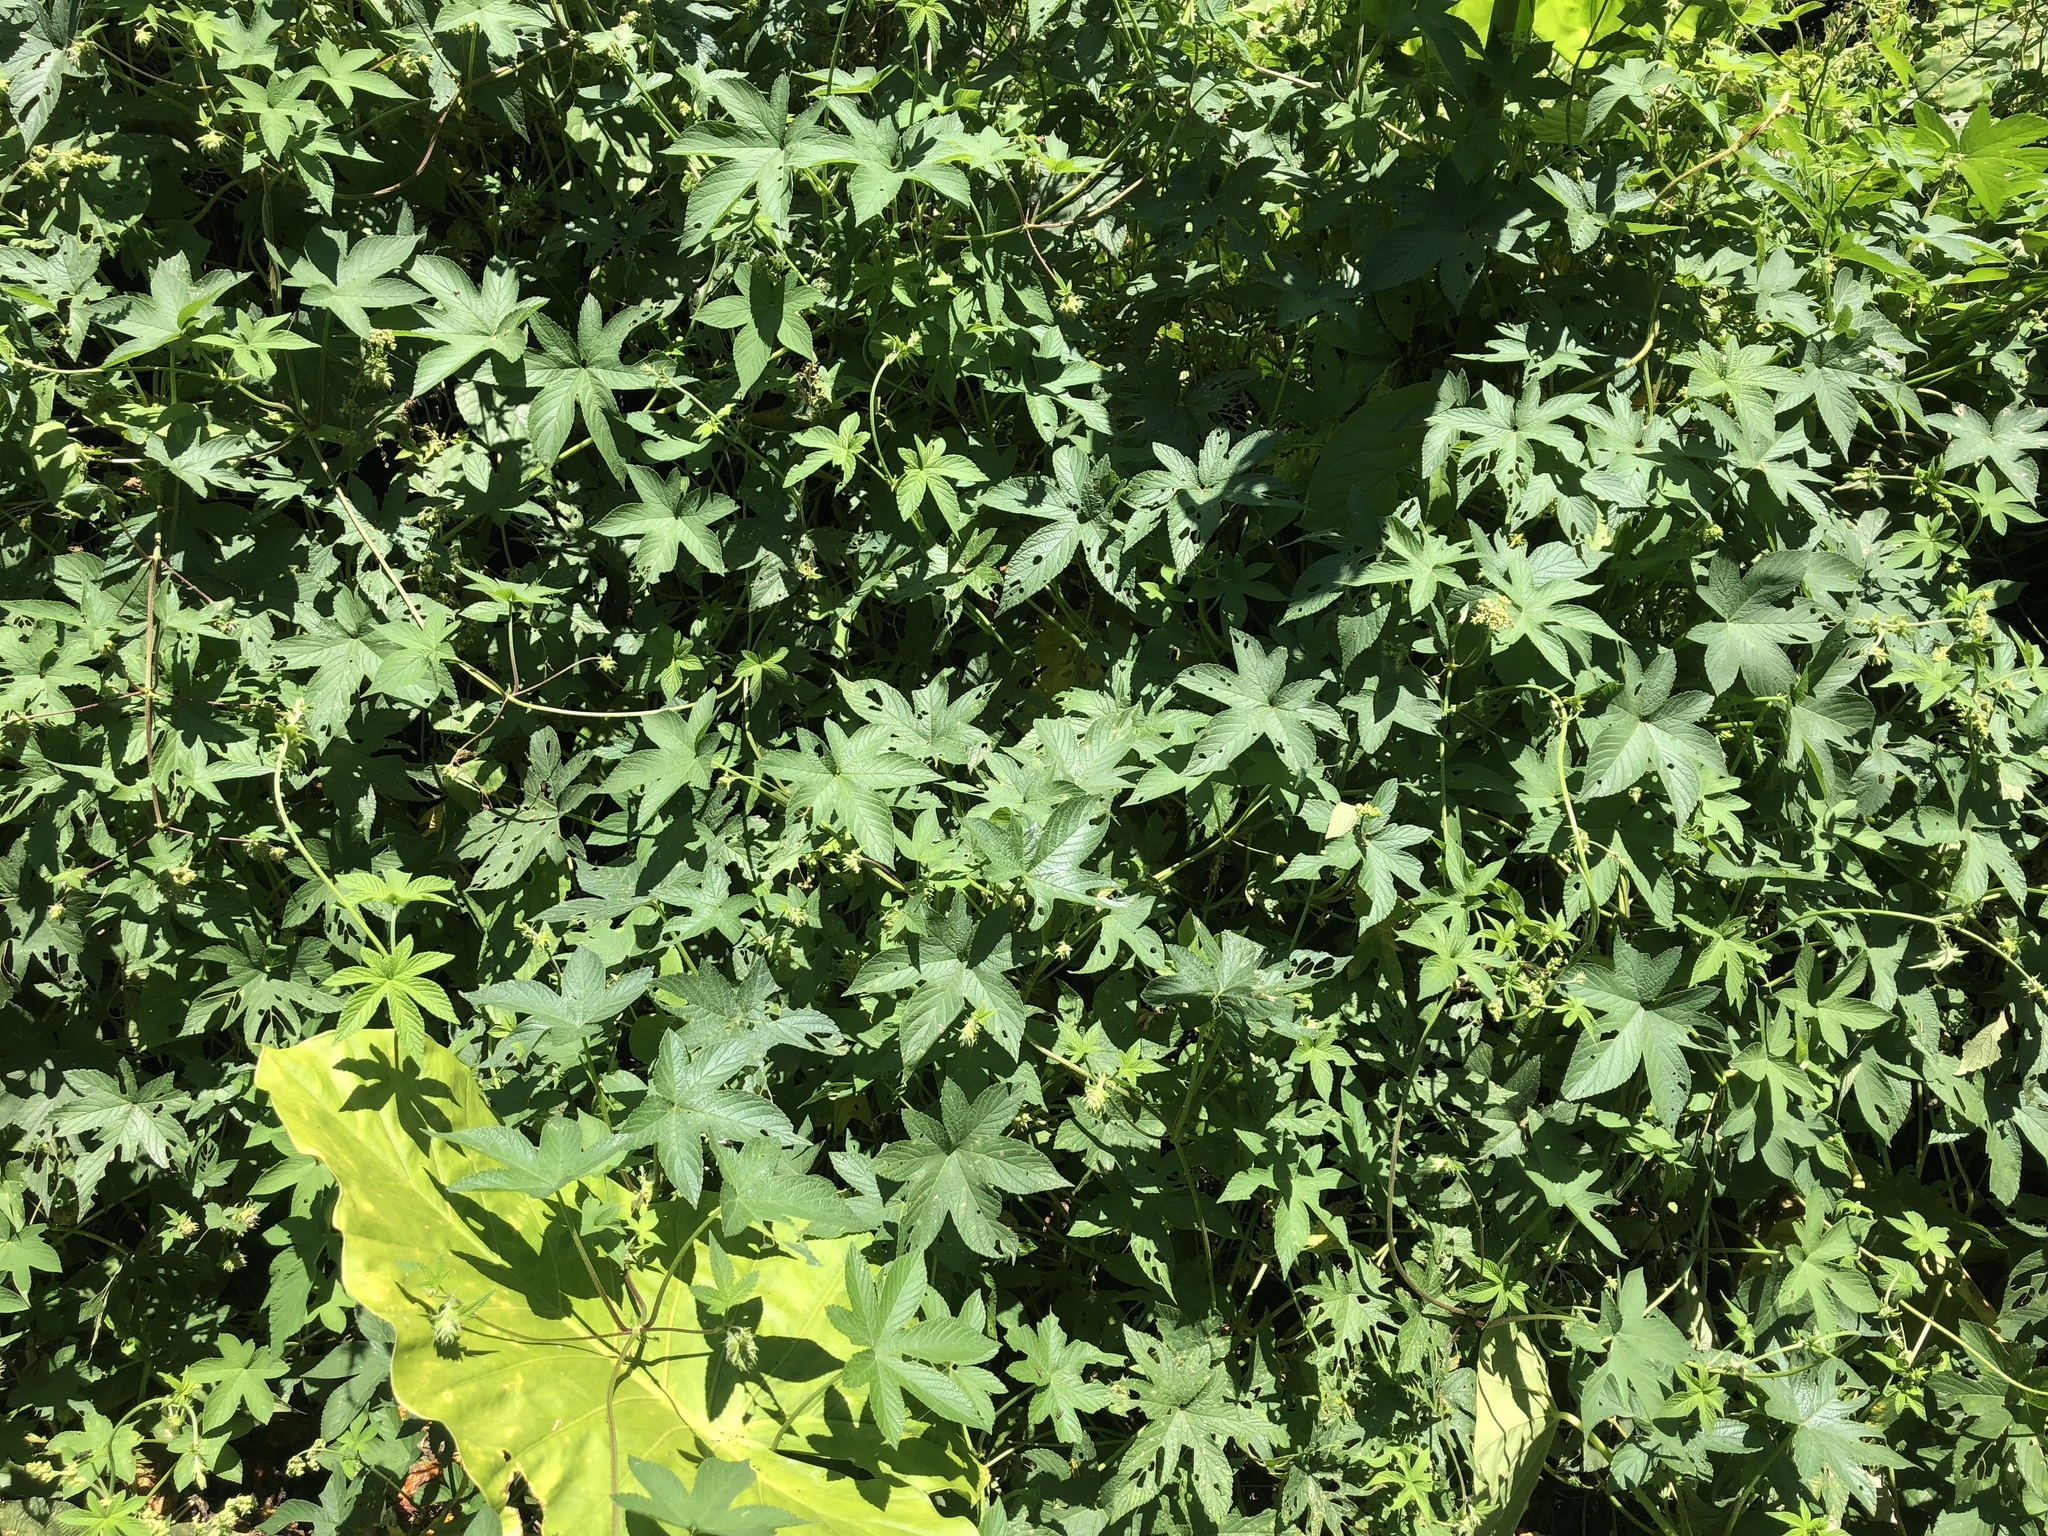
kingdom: Plantae
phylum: Tracheophyta
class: Magnoliopsida
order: Rosales
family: Cannabaceae
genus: Humulus
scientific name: Humulus scandens
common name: Japanese hop
